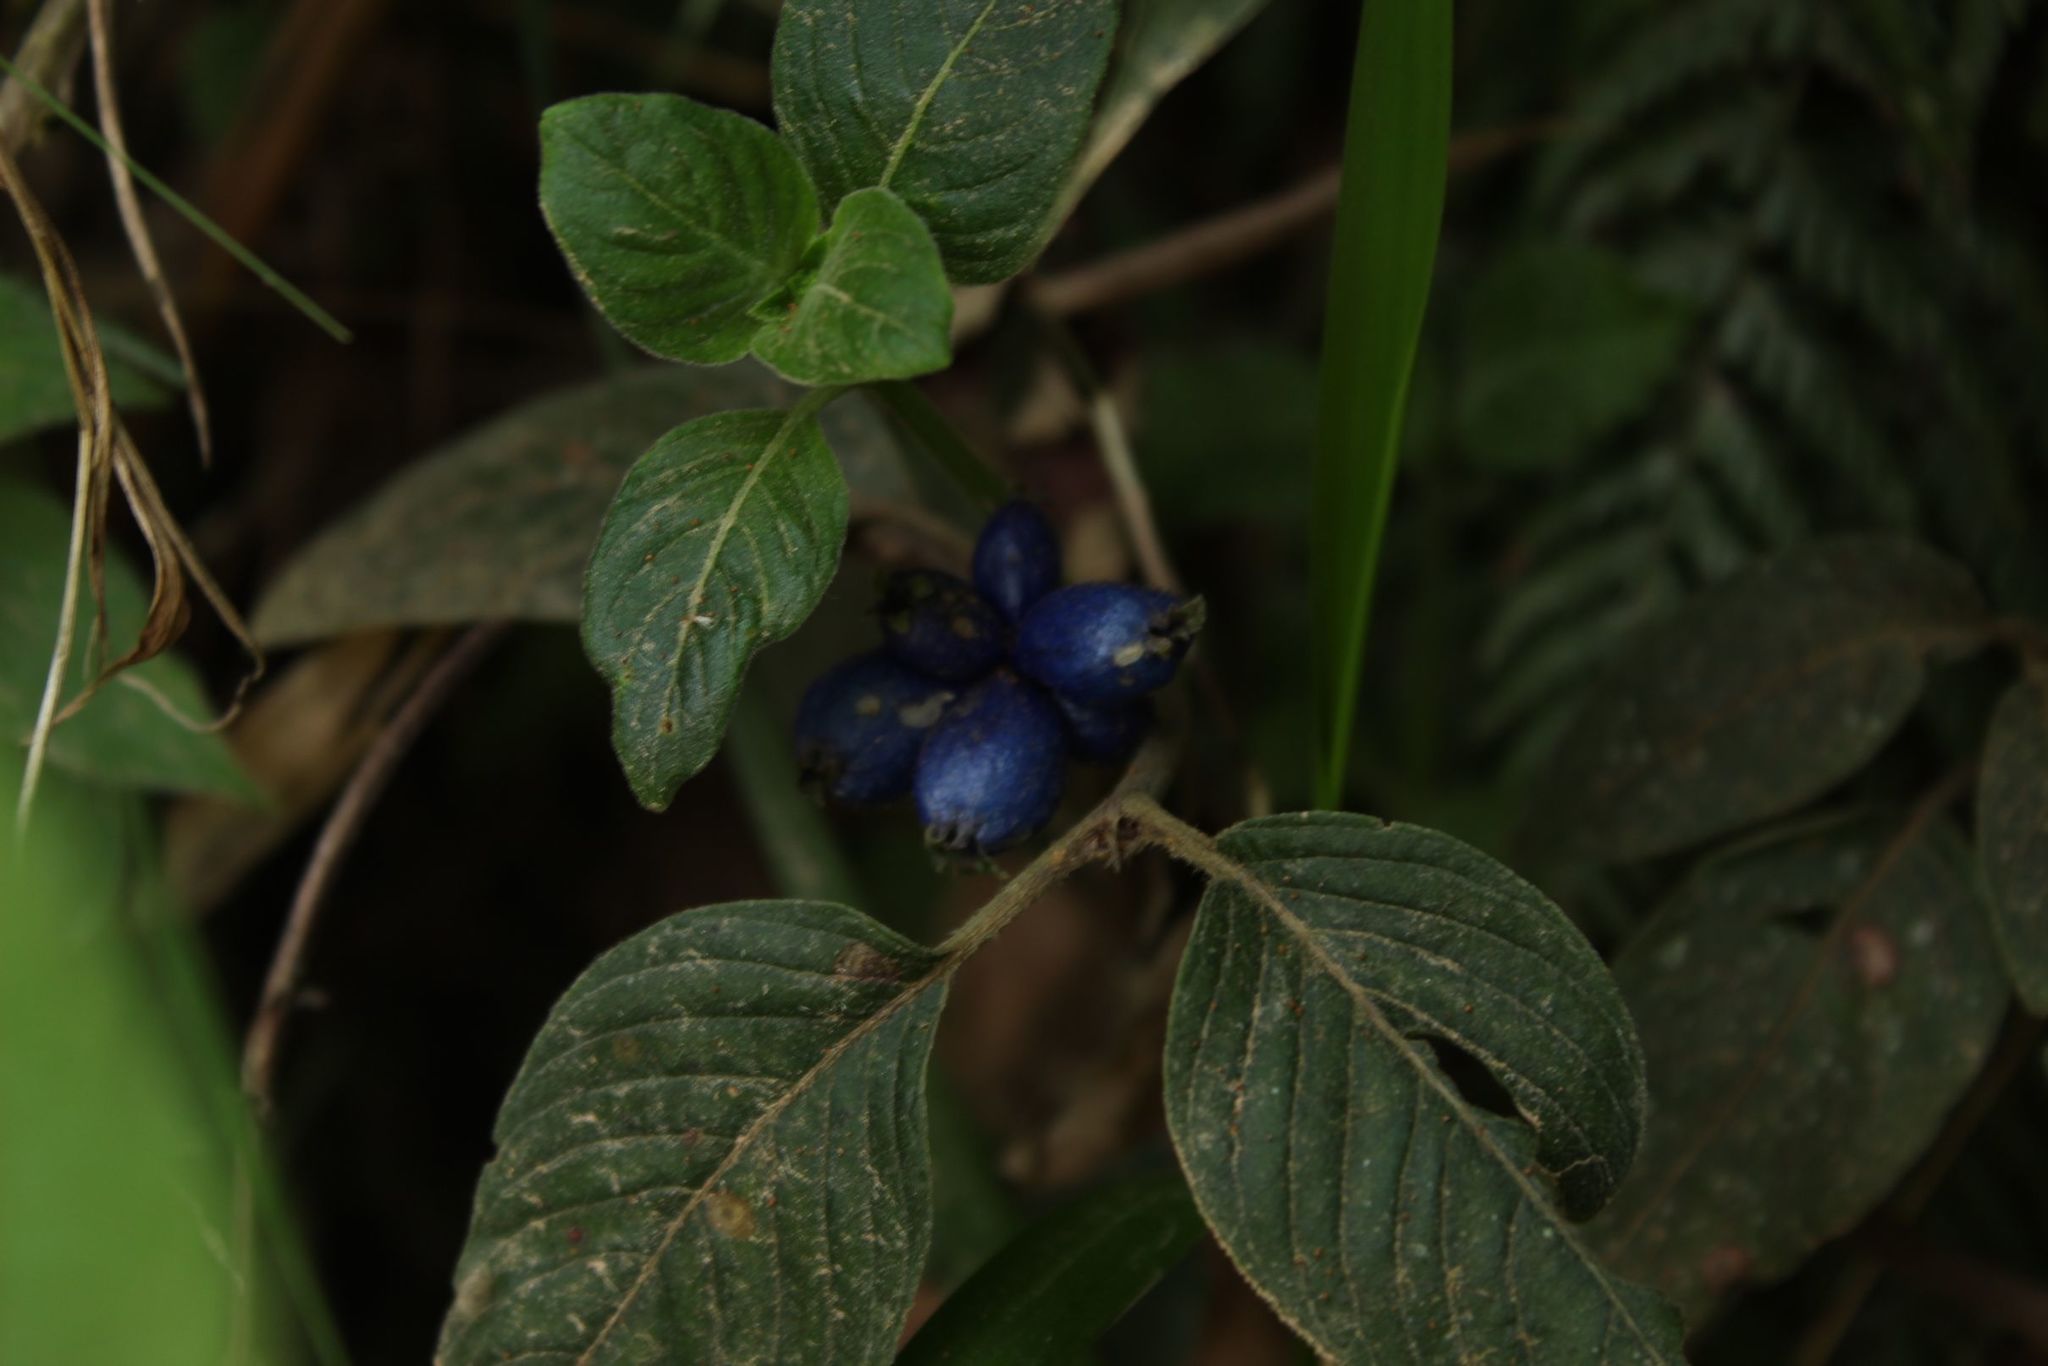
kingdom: Plantae
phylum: Tracheophyta
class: Magnoliopsida
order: Gentianales
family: Rubiaceae
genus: Coccocypselum
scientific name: Coccocypselum hirsutum
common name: Yerba de guava
